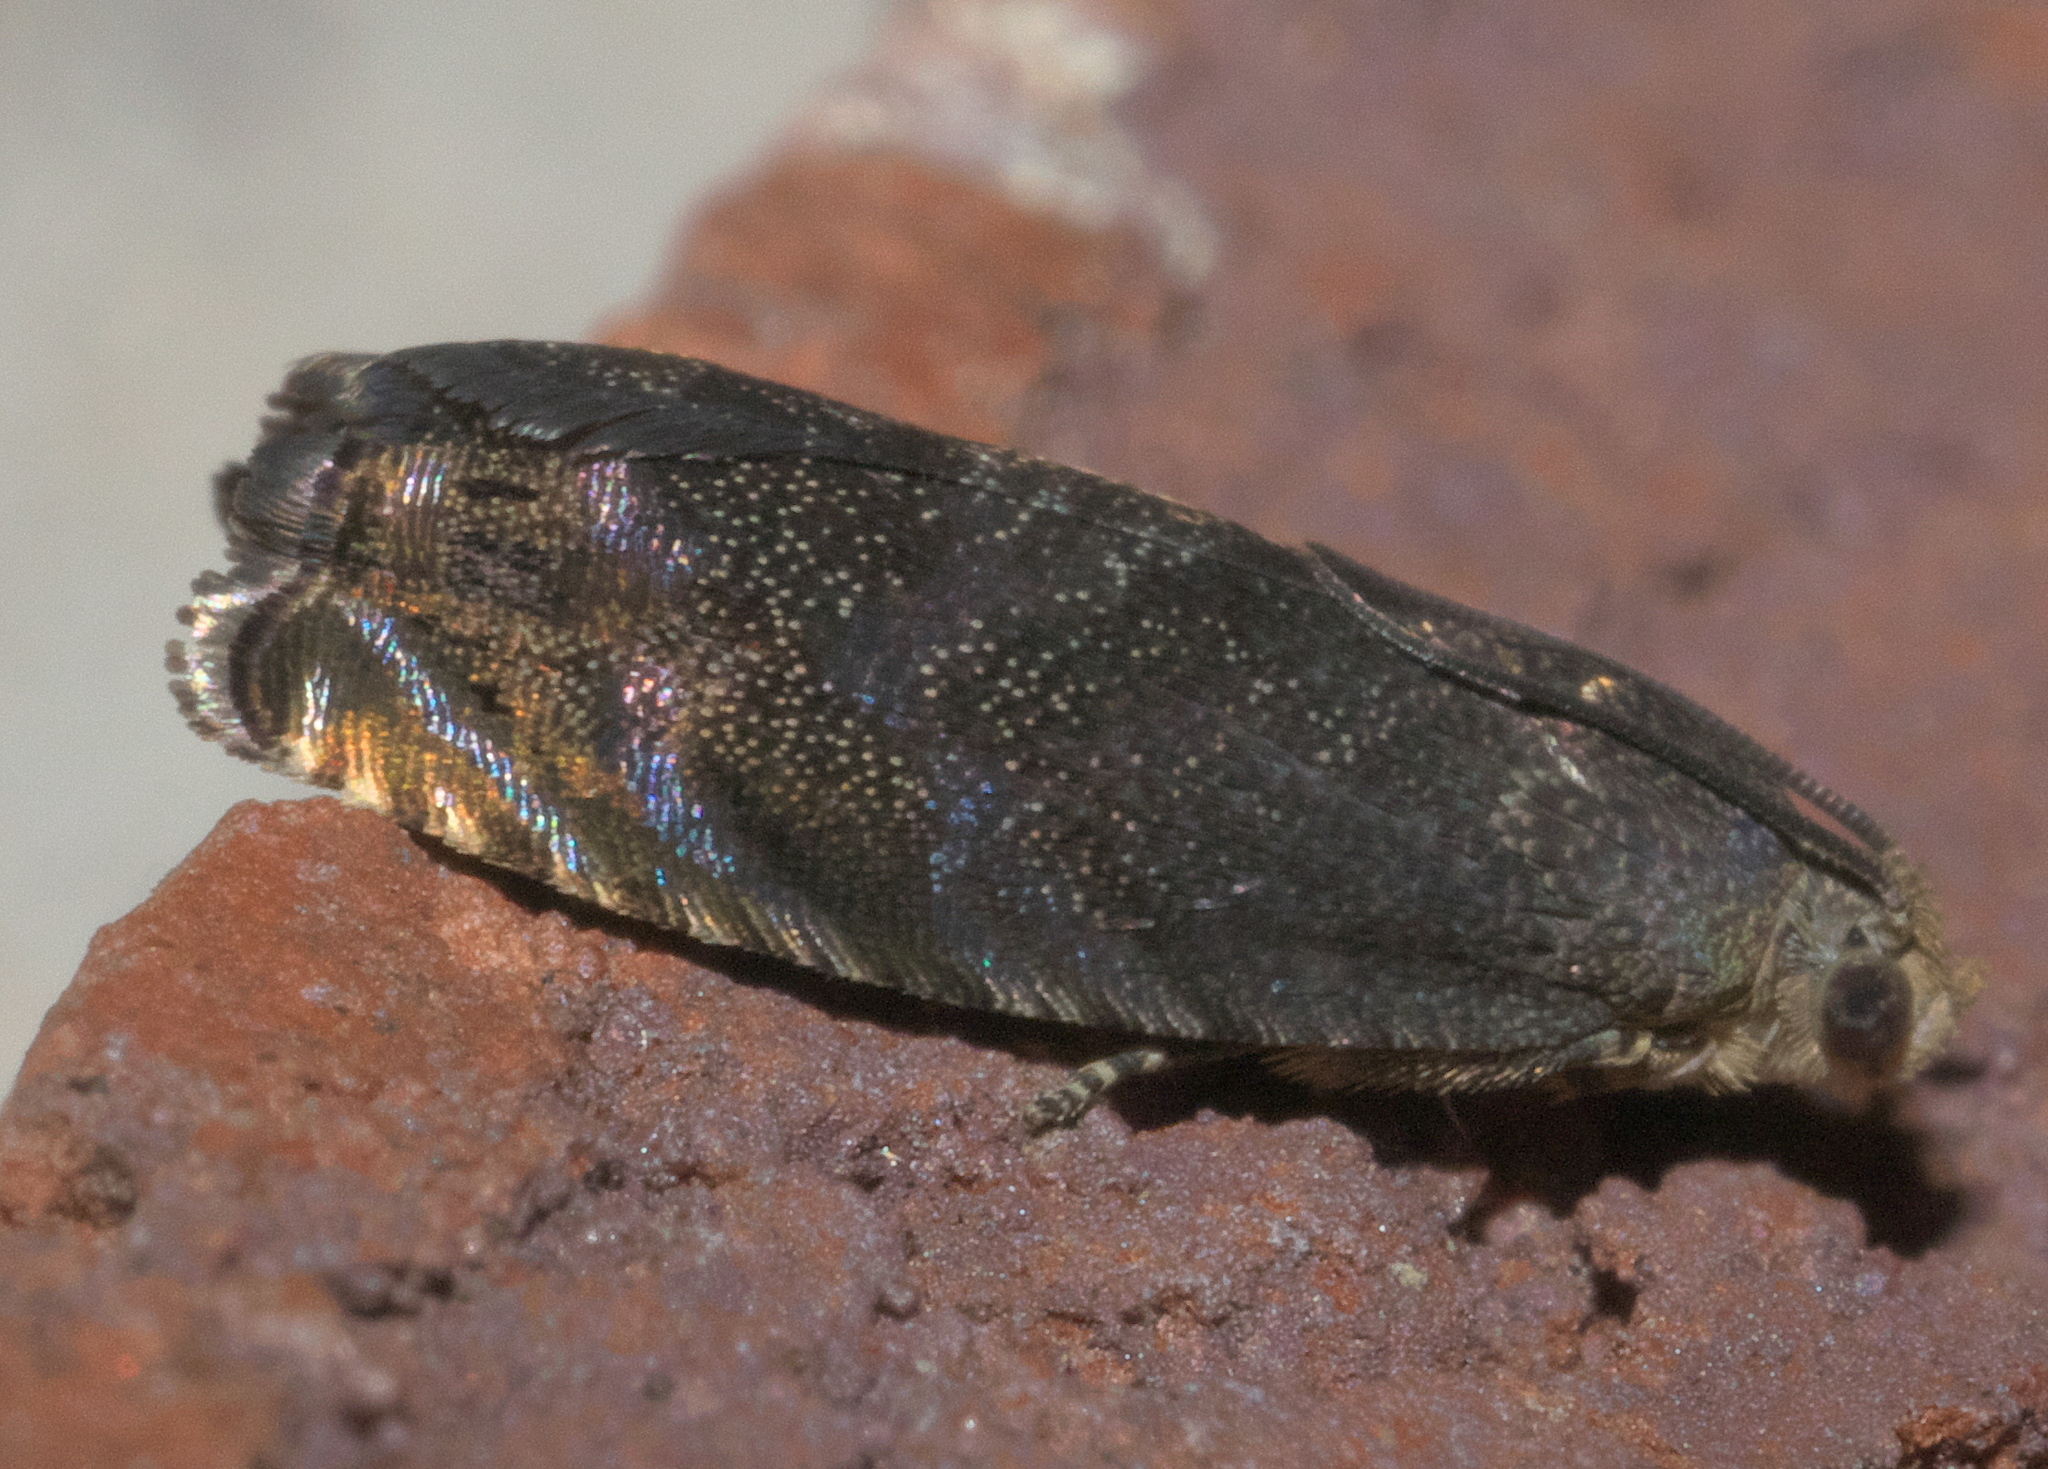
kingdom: Animalia
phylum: Arthropoda
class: Insecta
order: Lepidoptera
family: Tortricidae
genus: Cydia
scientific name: Cydia caryana
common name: Hickory shuckworm moth
